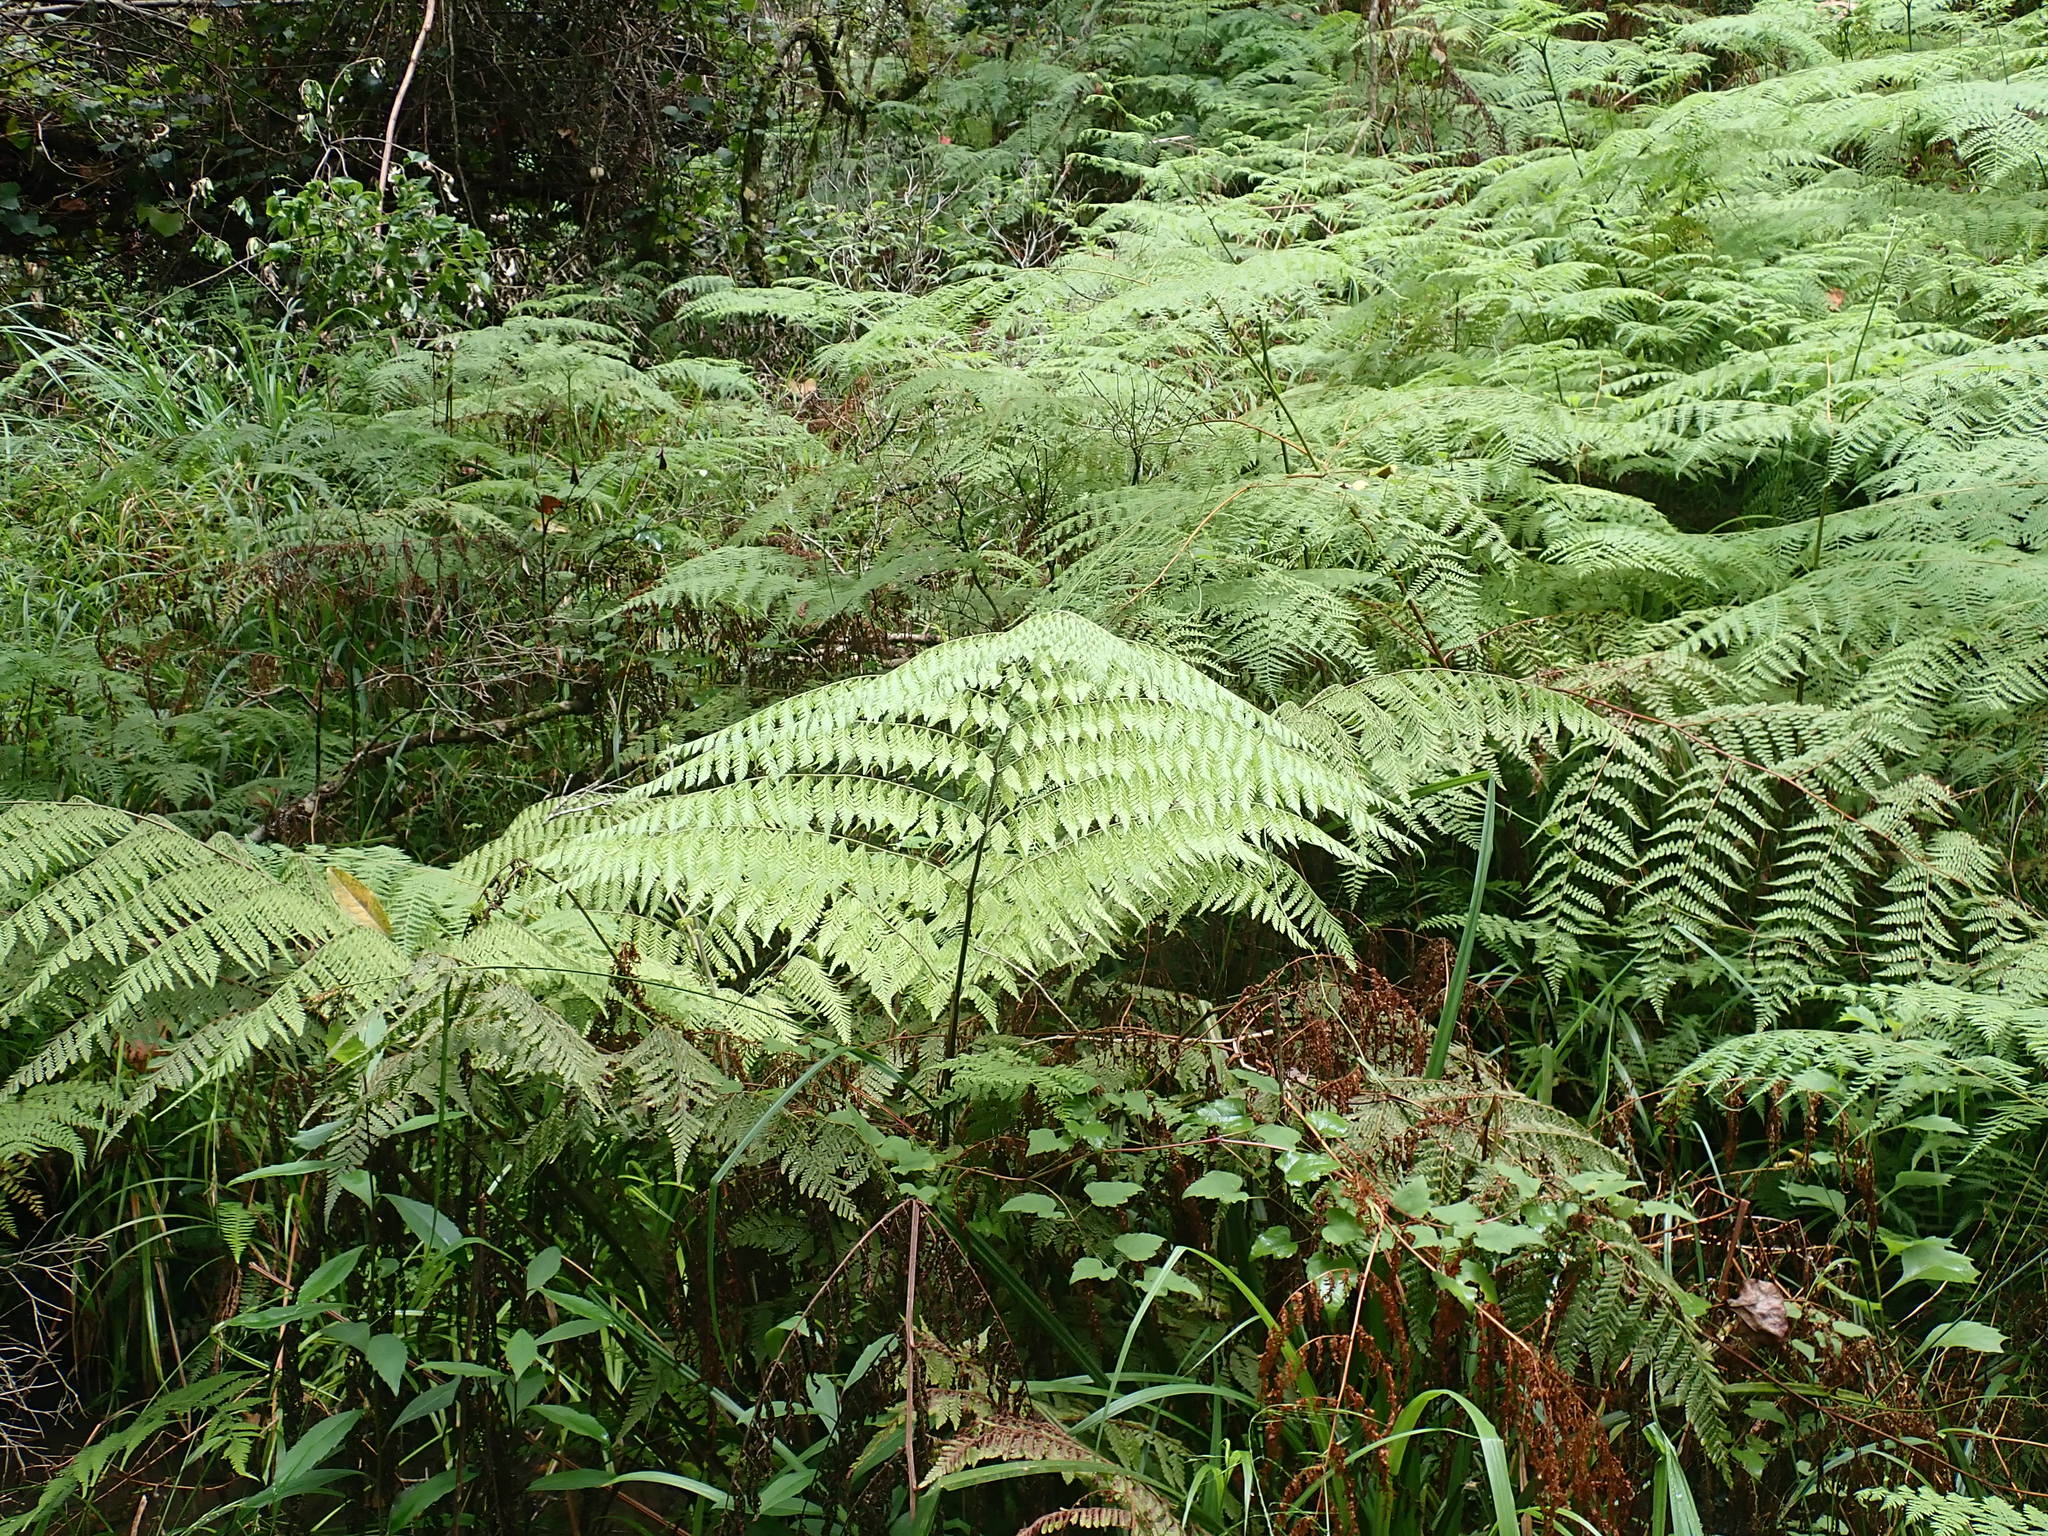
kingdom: Plantae
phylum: Tracheophyta
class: Polypodiopsida
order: Polypodiales
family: Dennstaedtiaceae
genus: Hypolepis
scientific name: Hypolepis sparsisora
